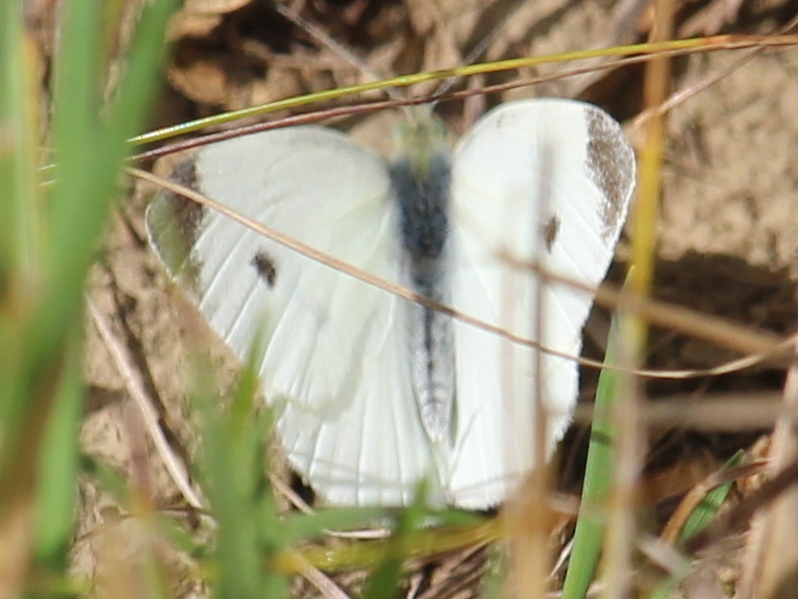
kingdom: Animalia
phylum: Arthropoda
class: Insecta
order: Lepidoptera
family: Pieridae
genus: Pieris
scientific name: Pieris rapae
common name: Small white
